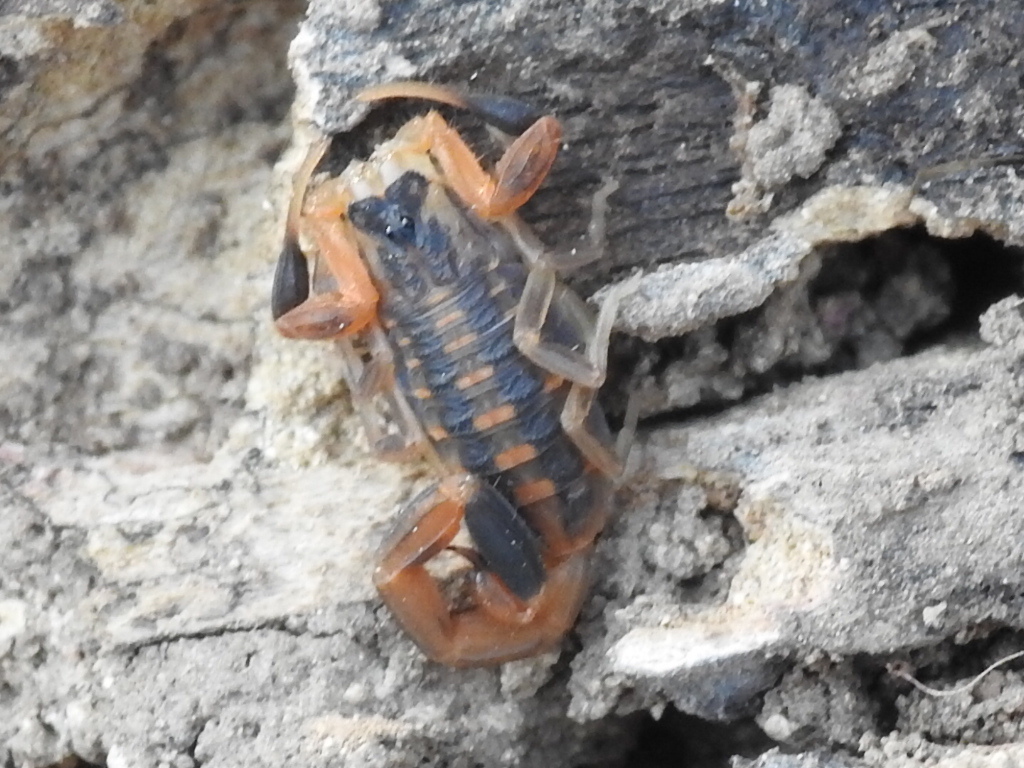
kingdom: Animalia
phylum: Arthropoda
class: Arachnida
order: Scorpiones
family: Buthidae
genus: Centruroides
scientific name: Centruroides vittatus
